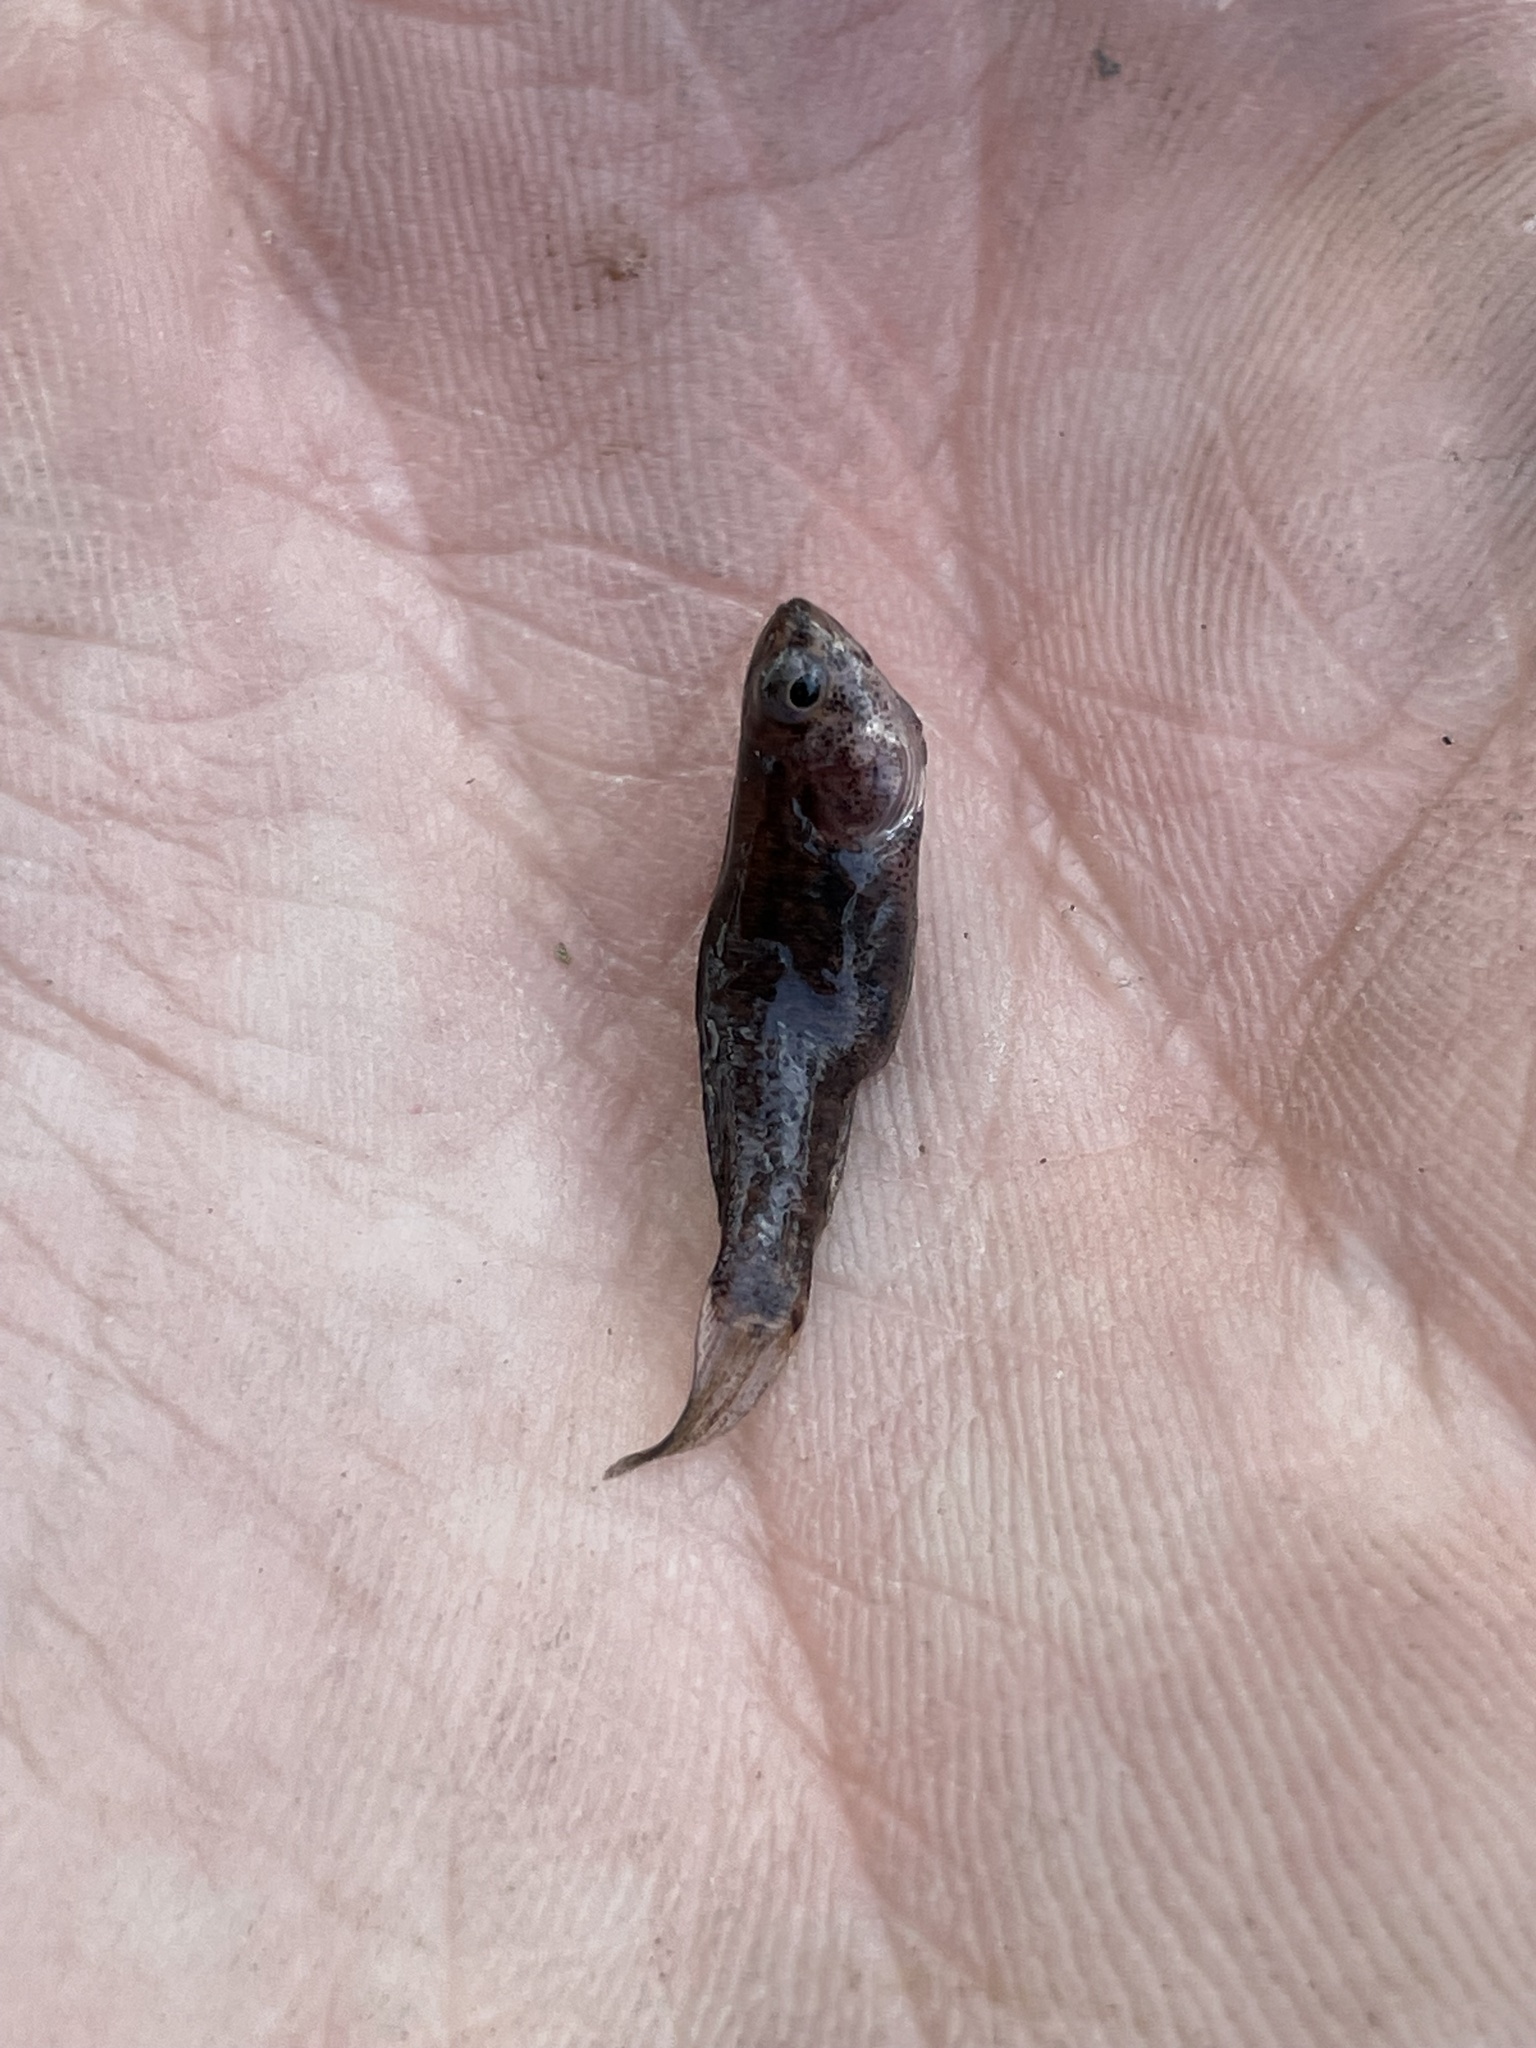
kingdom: Animalia
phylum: Chordata
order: Perciformes
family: Elassomatidae
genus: Elassoma
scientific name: Elassoma zonatum
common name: Banded pygmy sunfish
